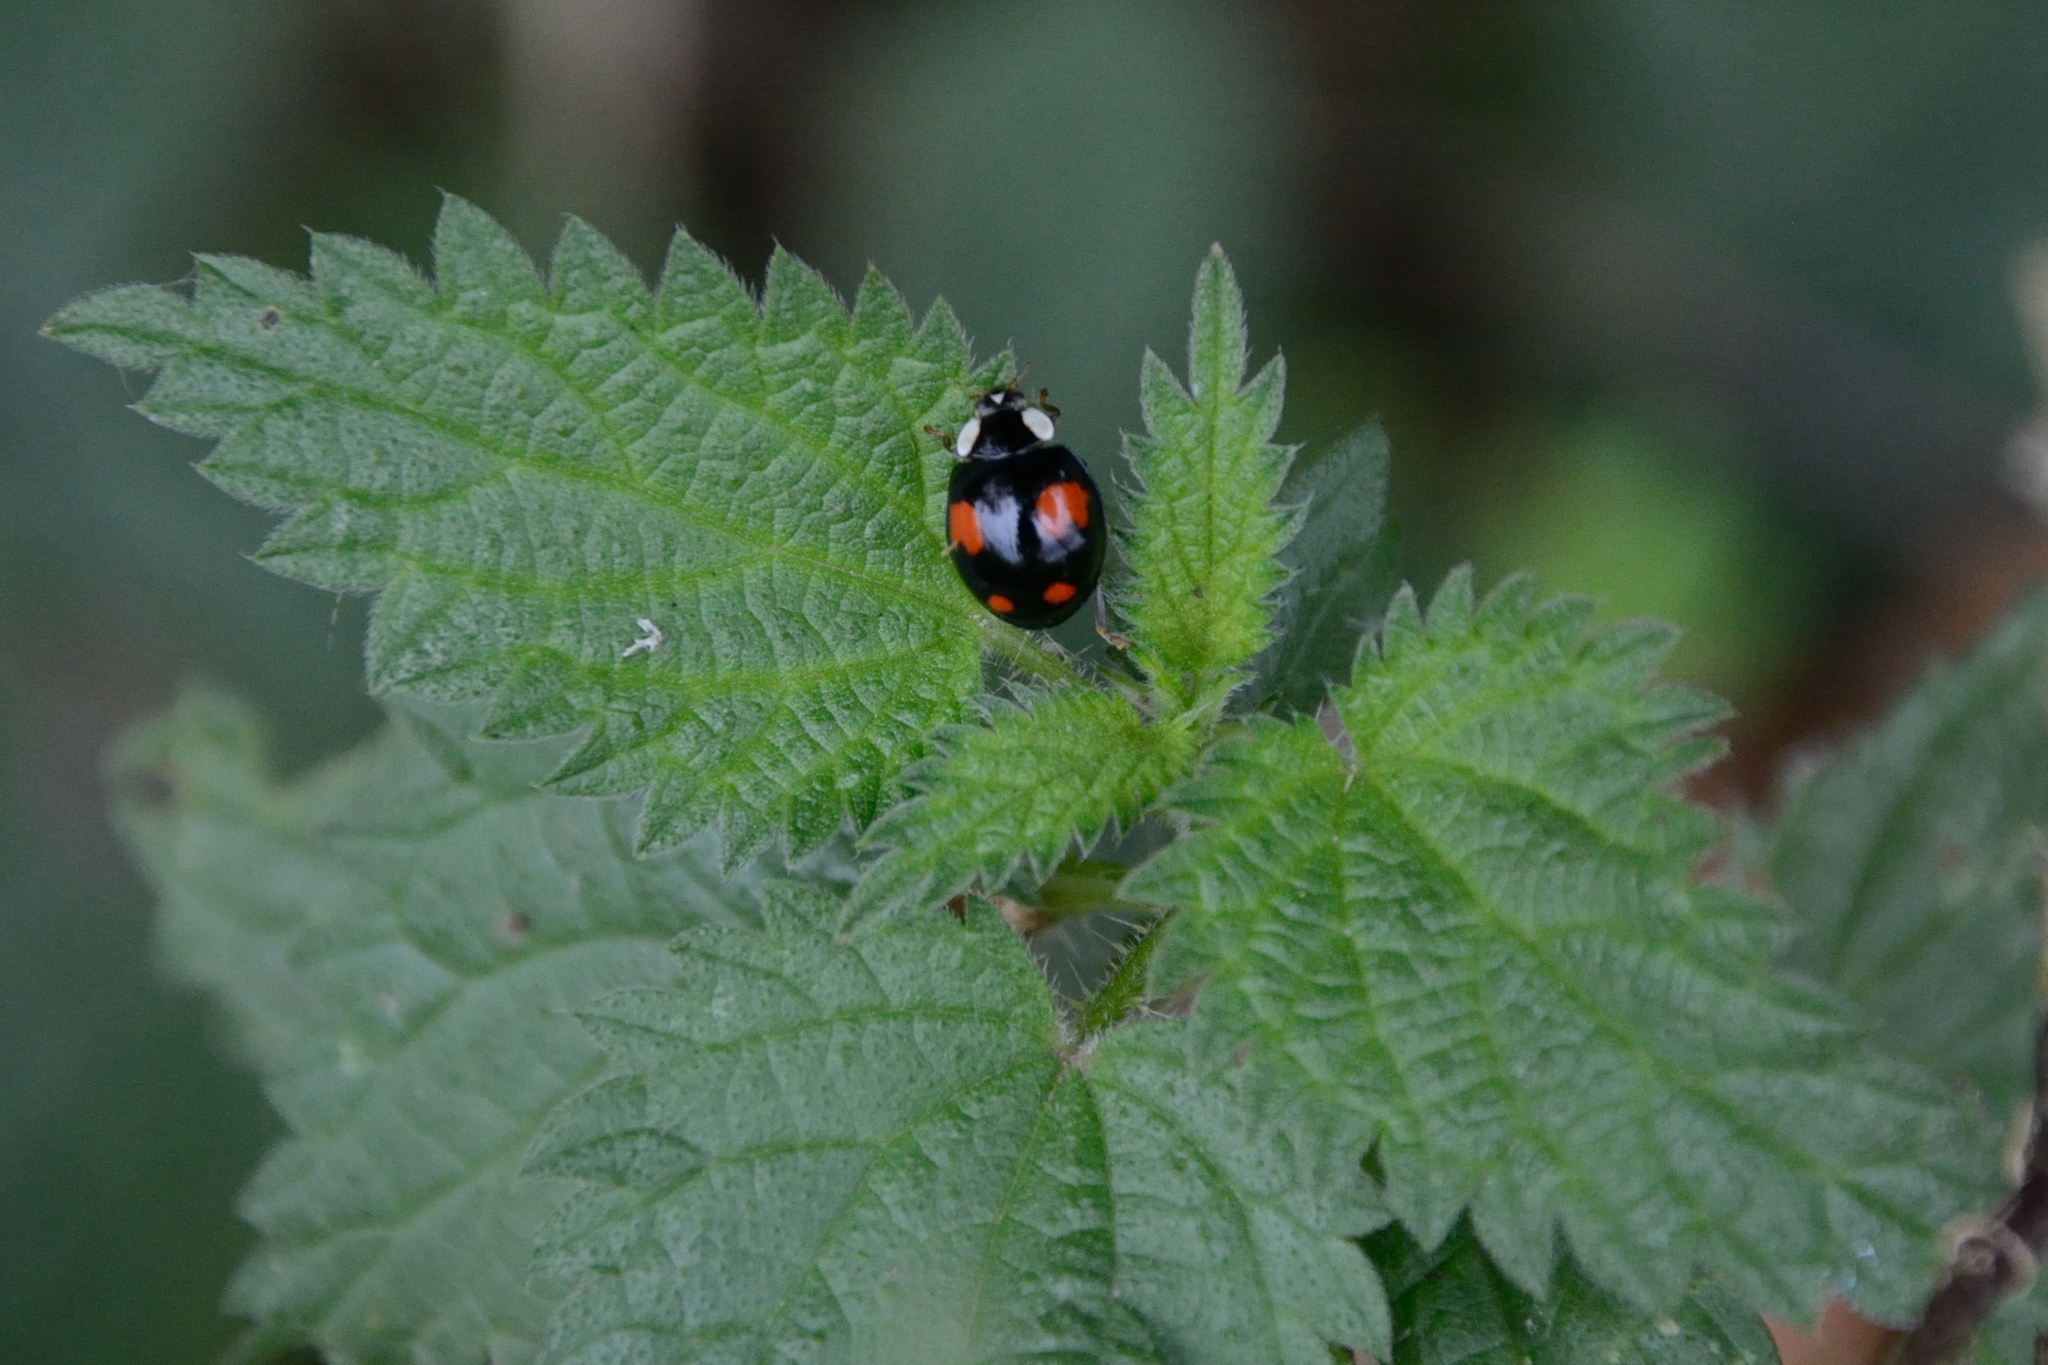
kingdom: Animalia
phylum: Arthropoda
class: Insecta
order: Coleoptera
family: Coccinellidae
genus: Harmonia
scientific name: Harmonia axyridis
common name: Harlequin ladybird
